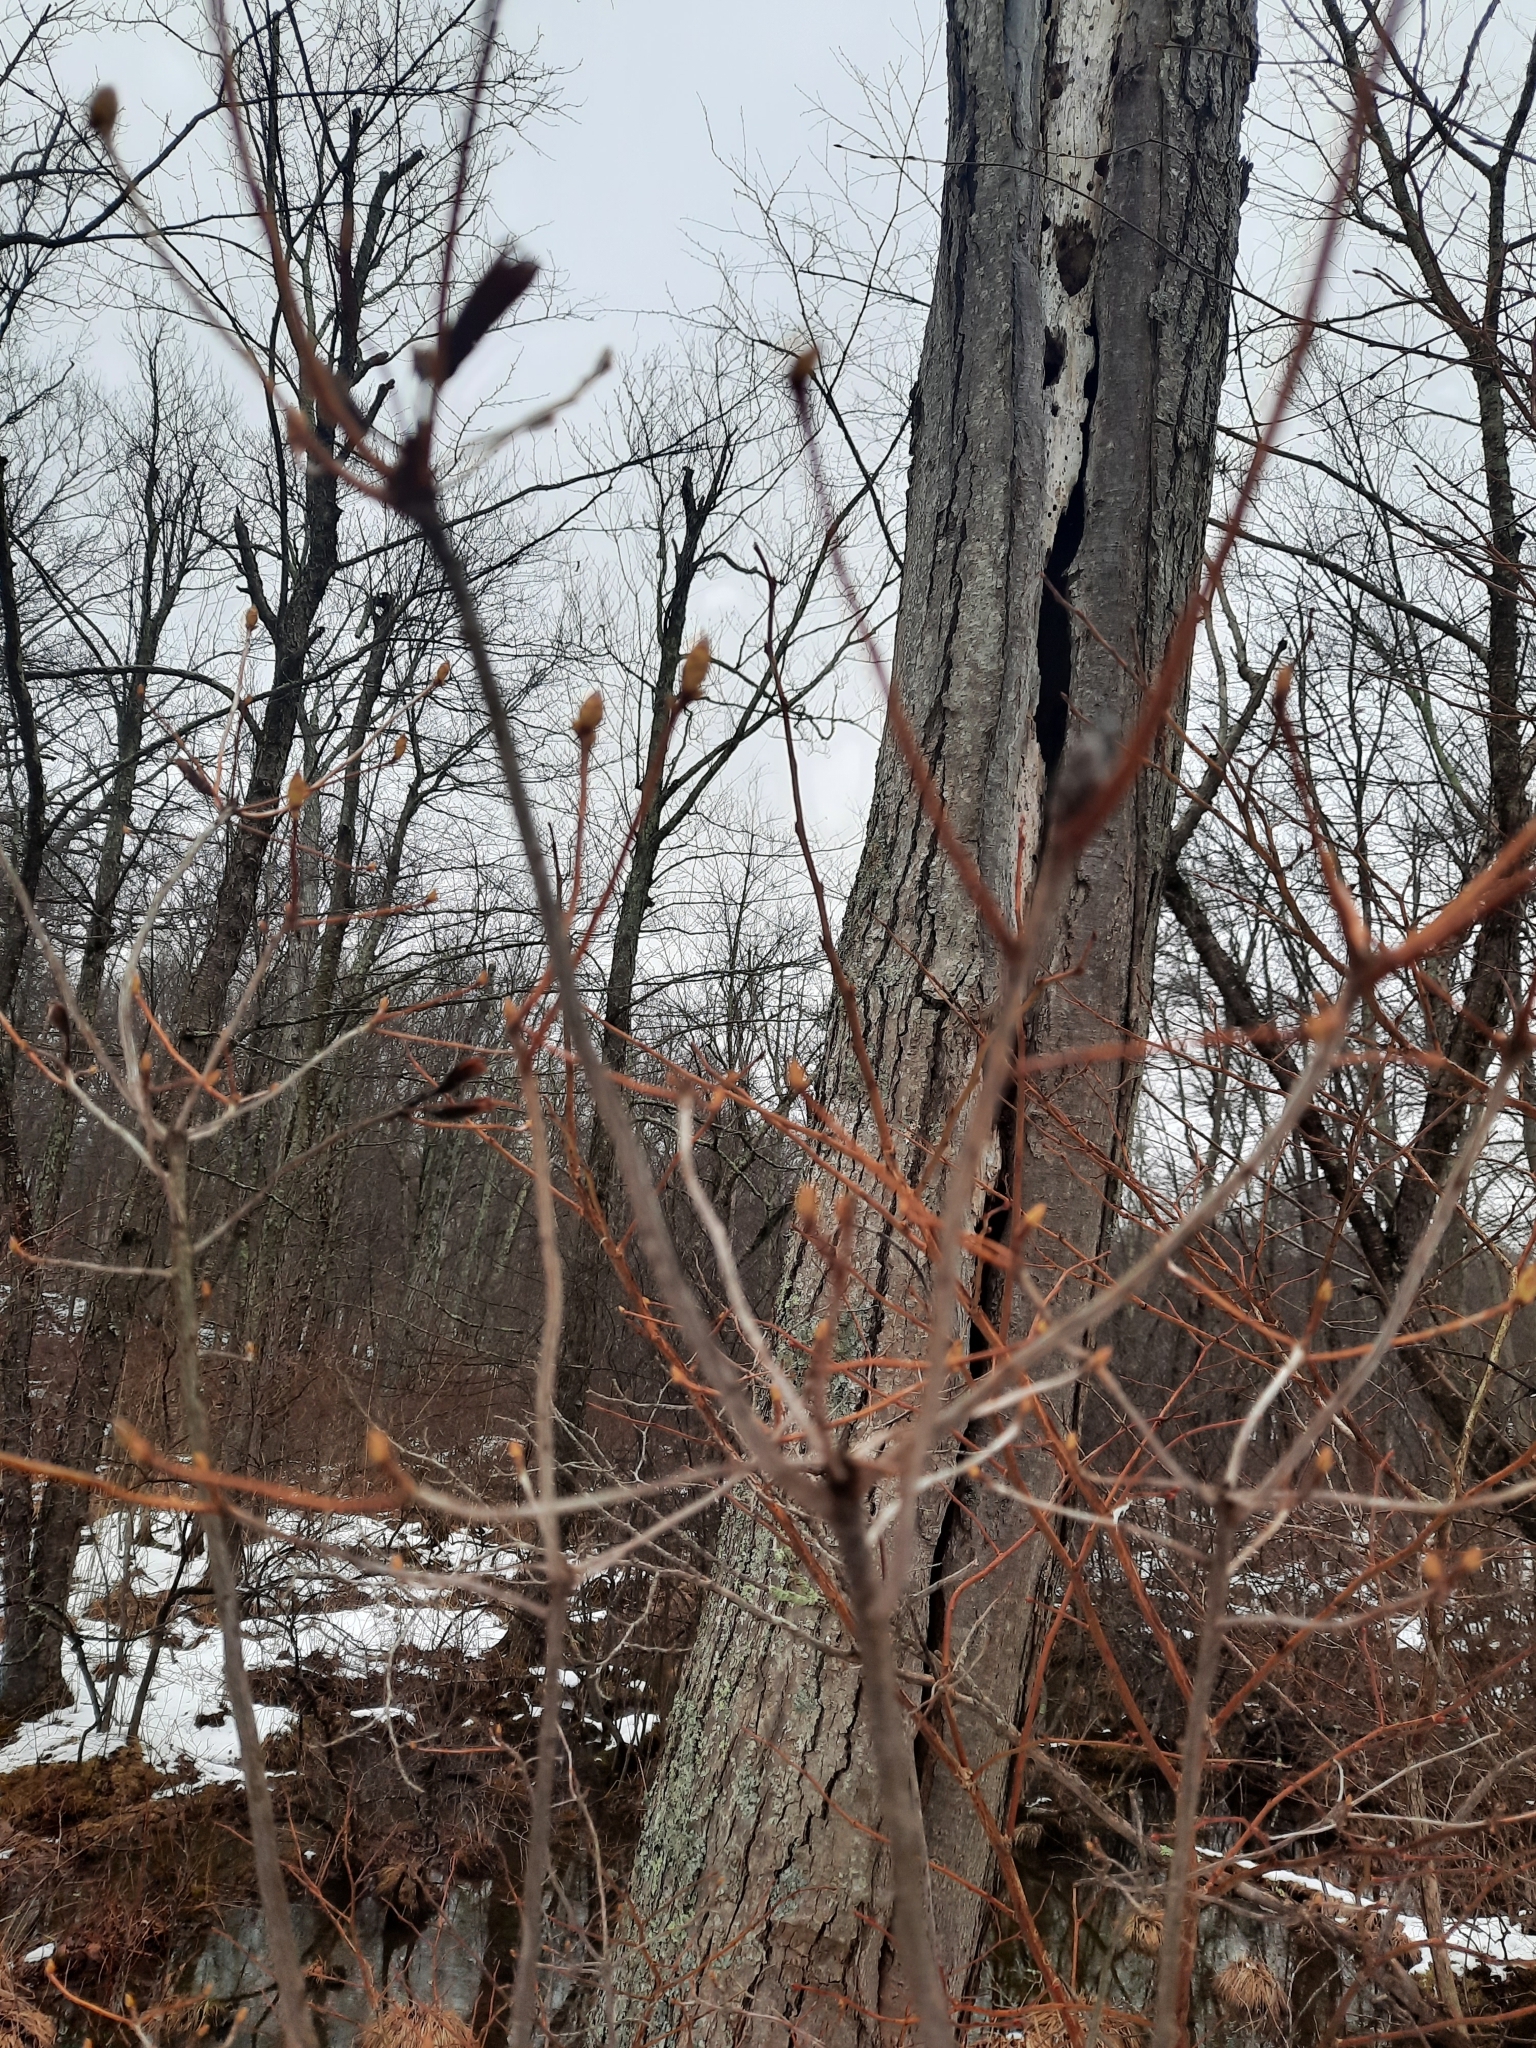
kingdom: Plantae
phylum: Tracheophyta
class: Magnoliopsida
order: Ericales
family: Ericaceae
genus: Rhododendron
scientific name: Rhododendron viscosum
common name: Clammy azalea
